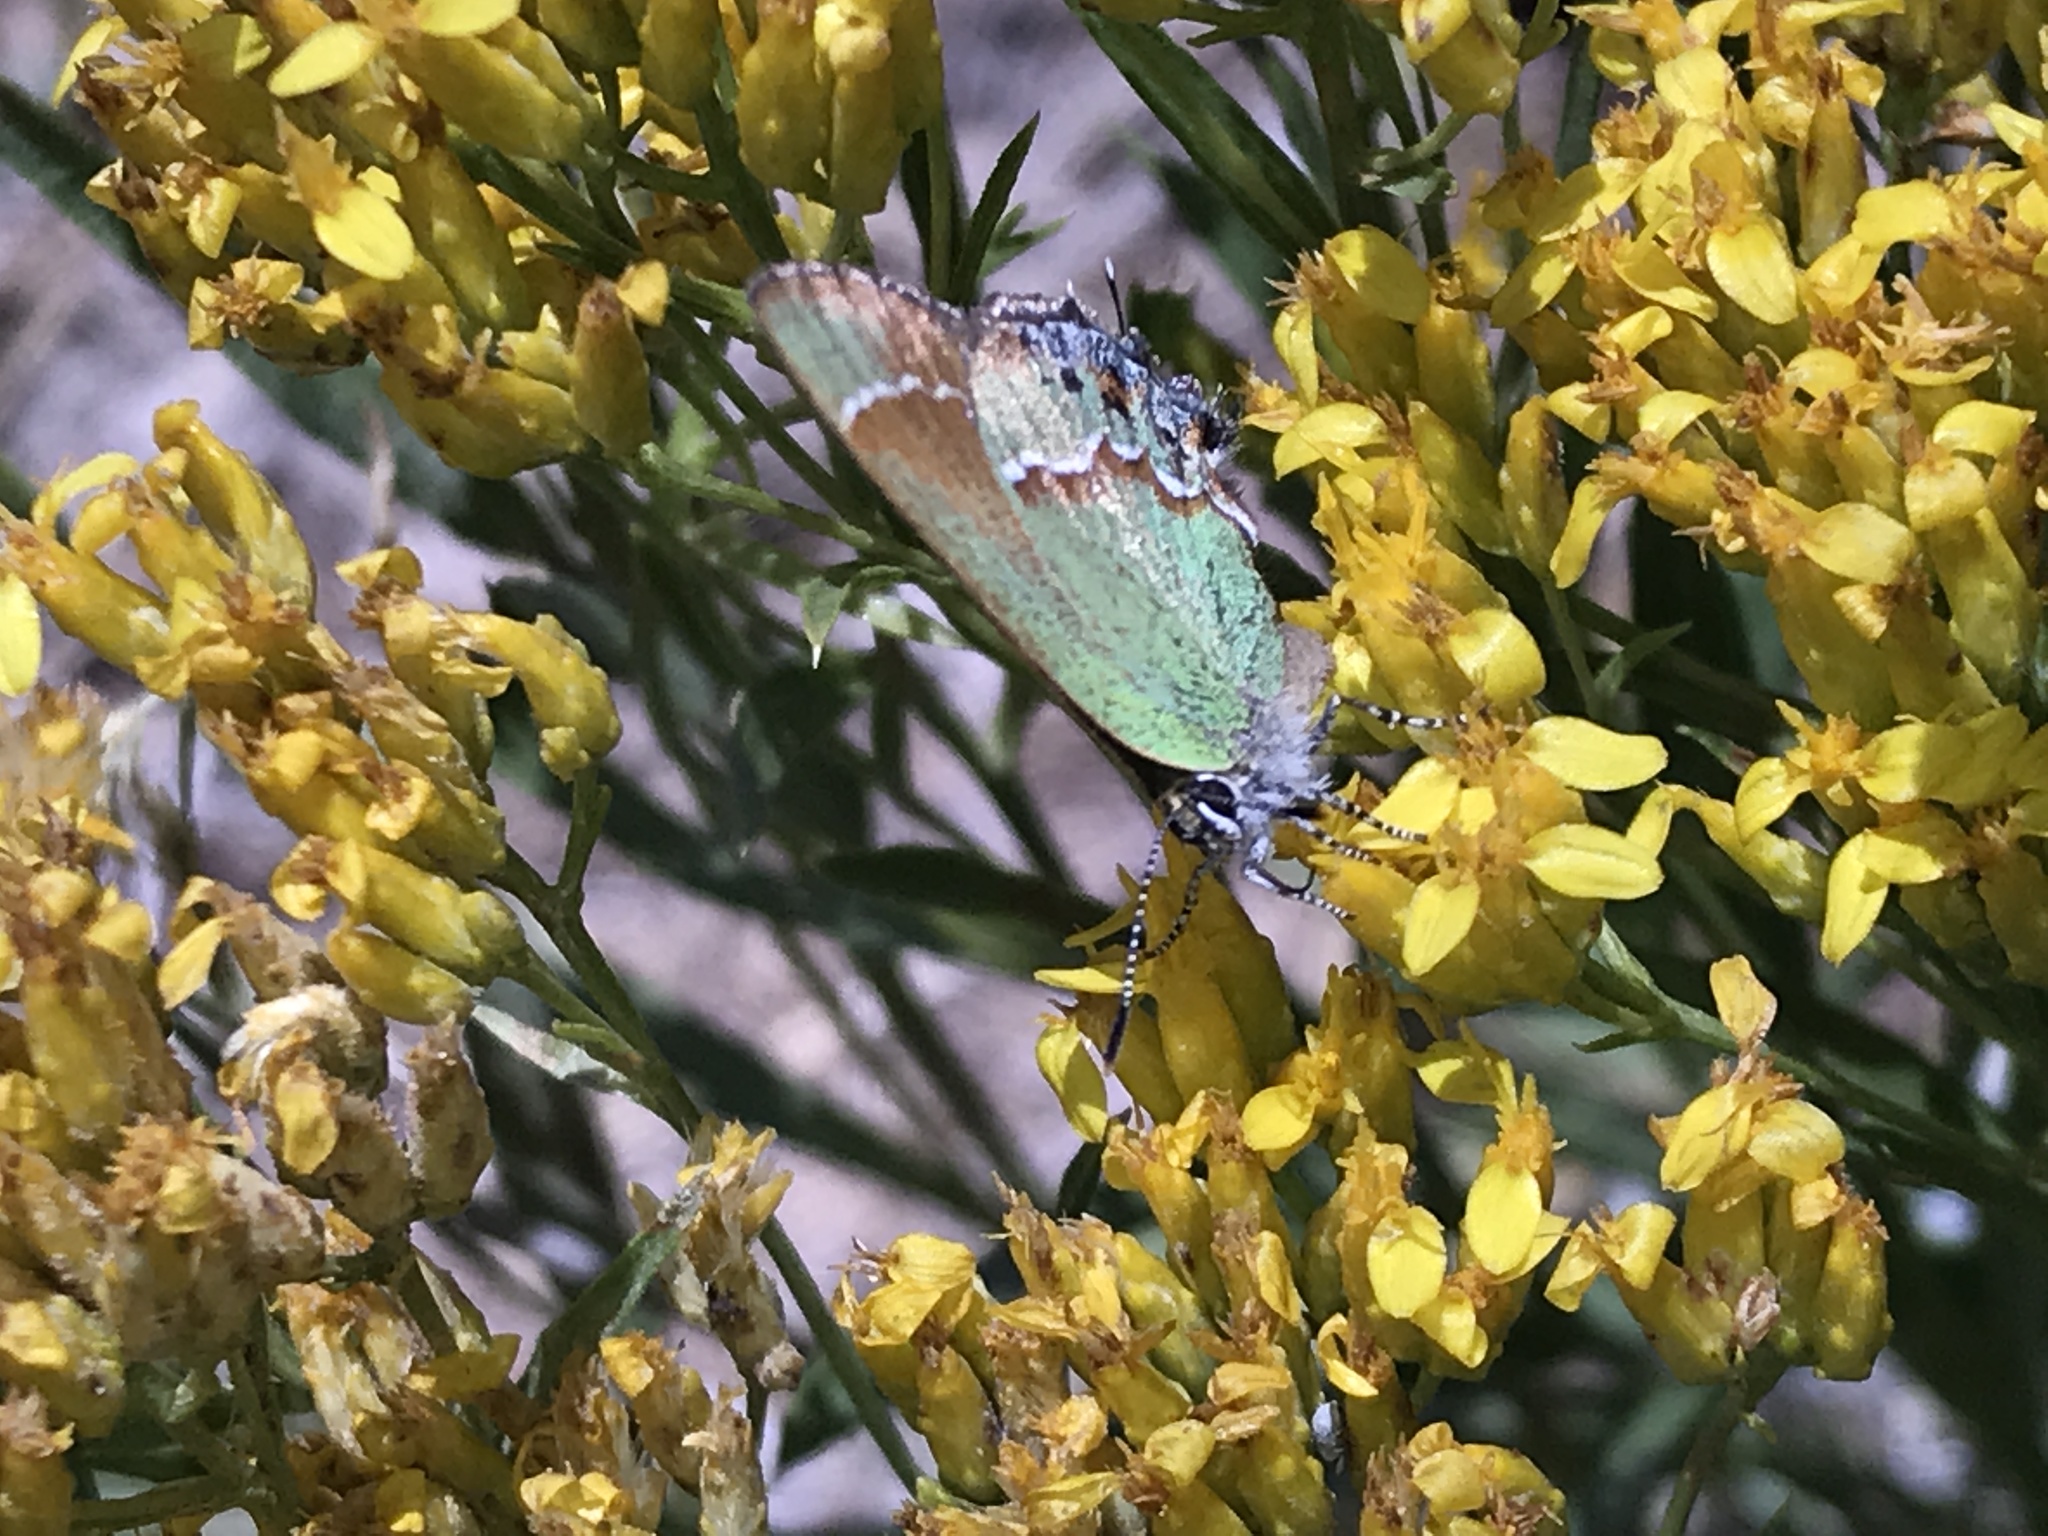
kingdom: Animalia
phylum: Arthropoda
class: Insecta
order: Lepidoptera
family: Lycaenidae
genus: Mitoura
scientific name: Mitoura siva
